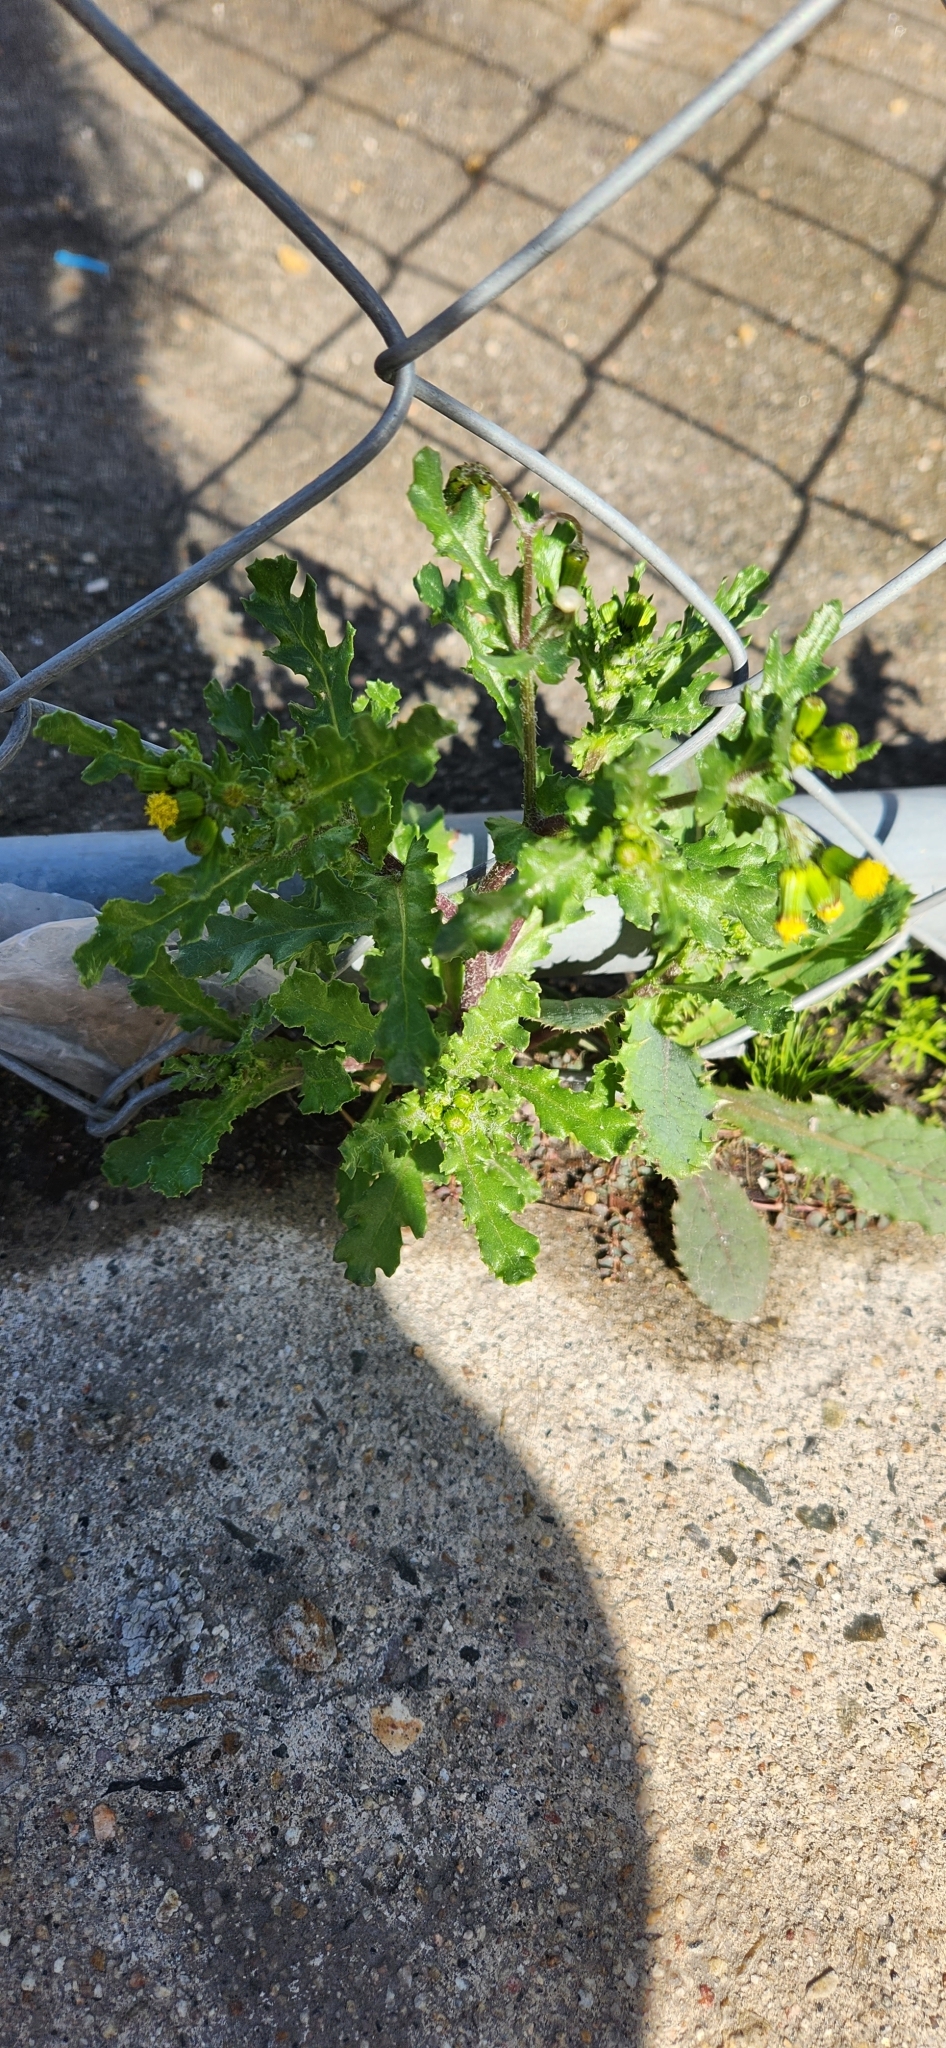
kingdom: Plantae
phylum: Tracheophyta
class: Magnoliopsida
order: Asterales
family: Asteraceae
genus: Senecio
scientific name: Senecio vulgaris
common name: Old-man-in-the-spring
